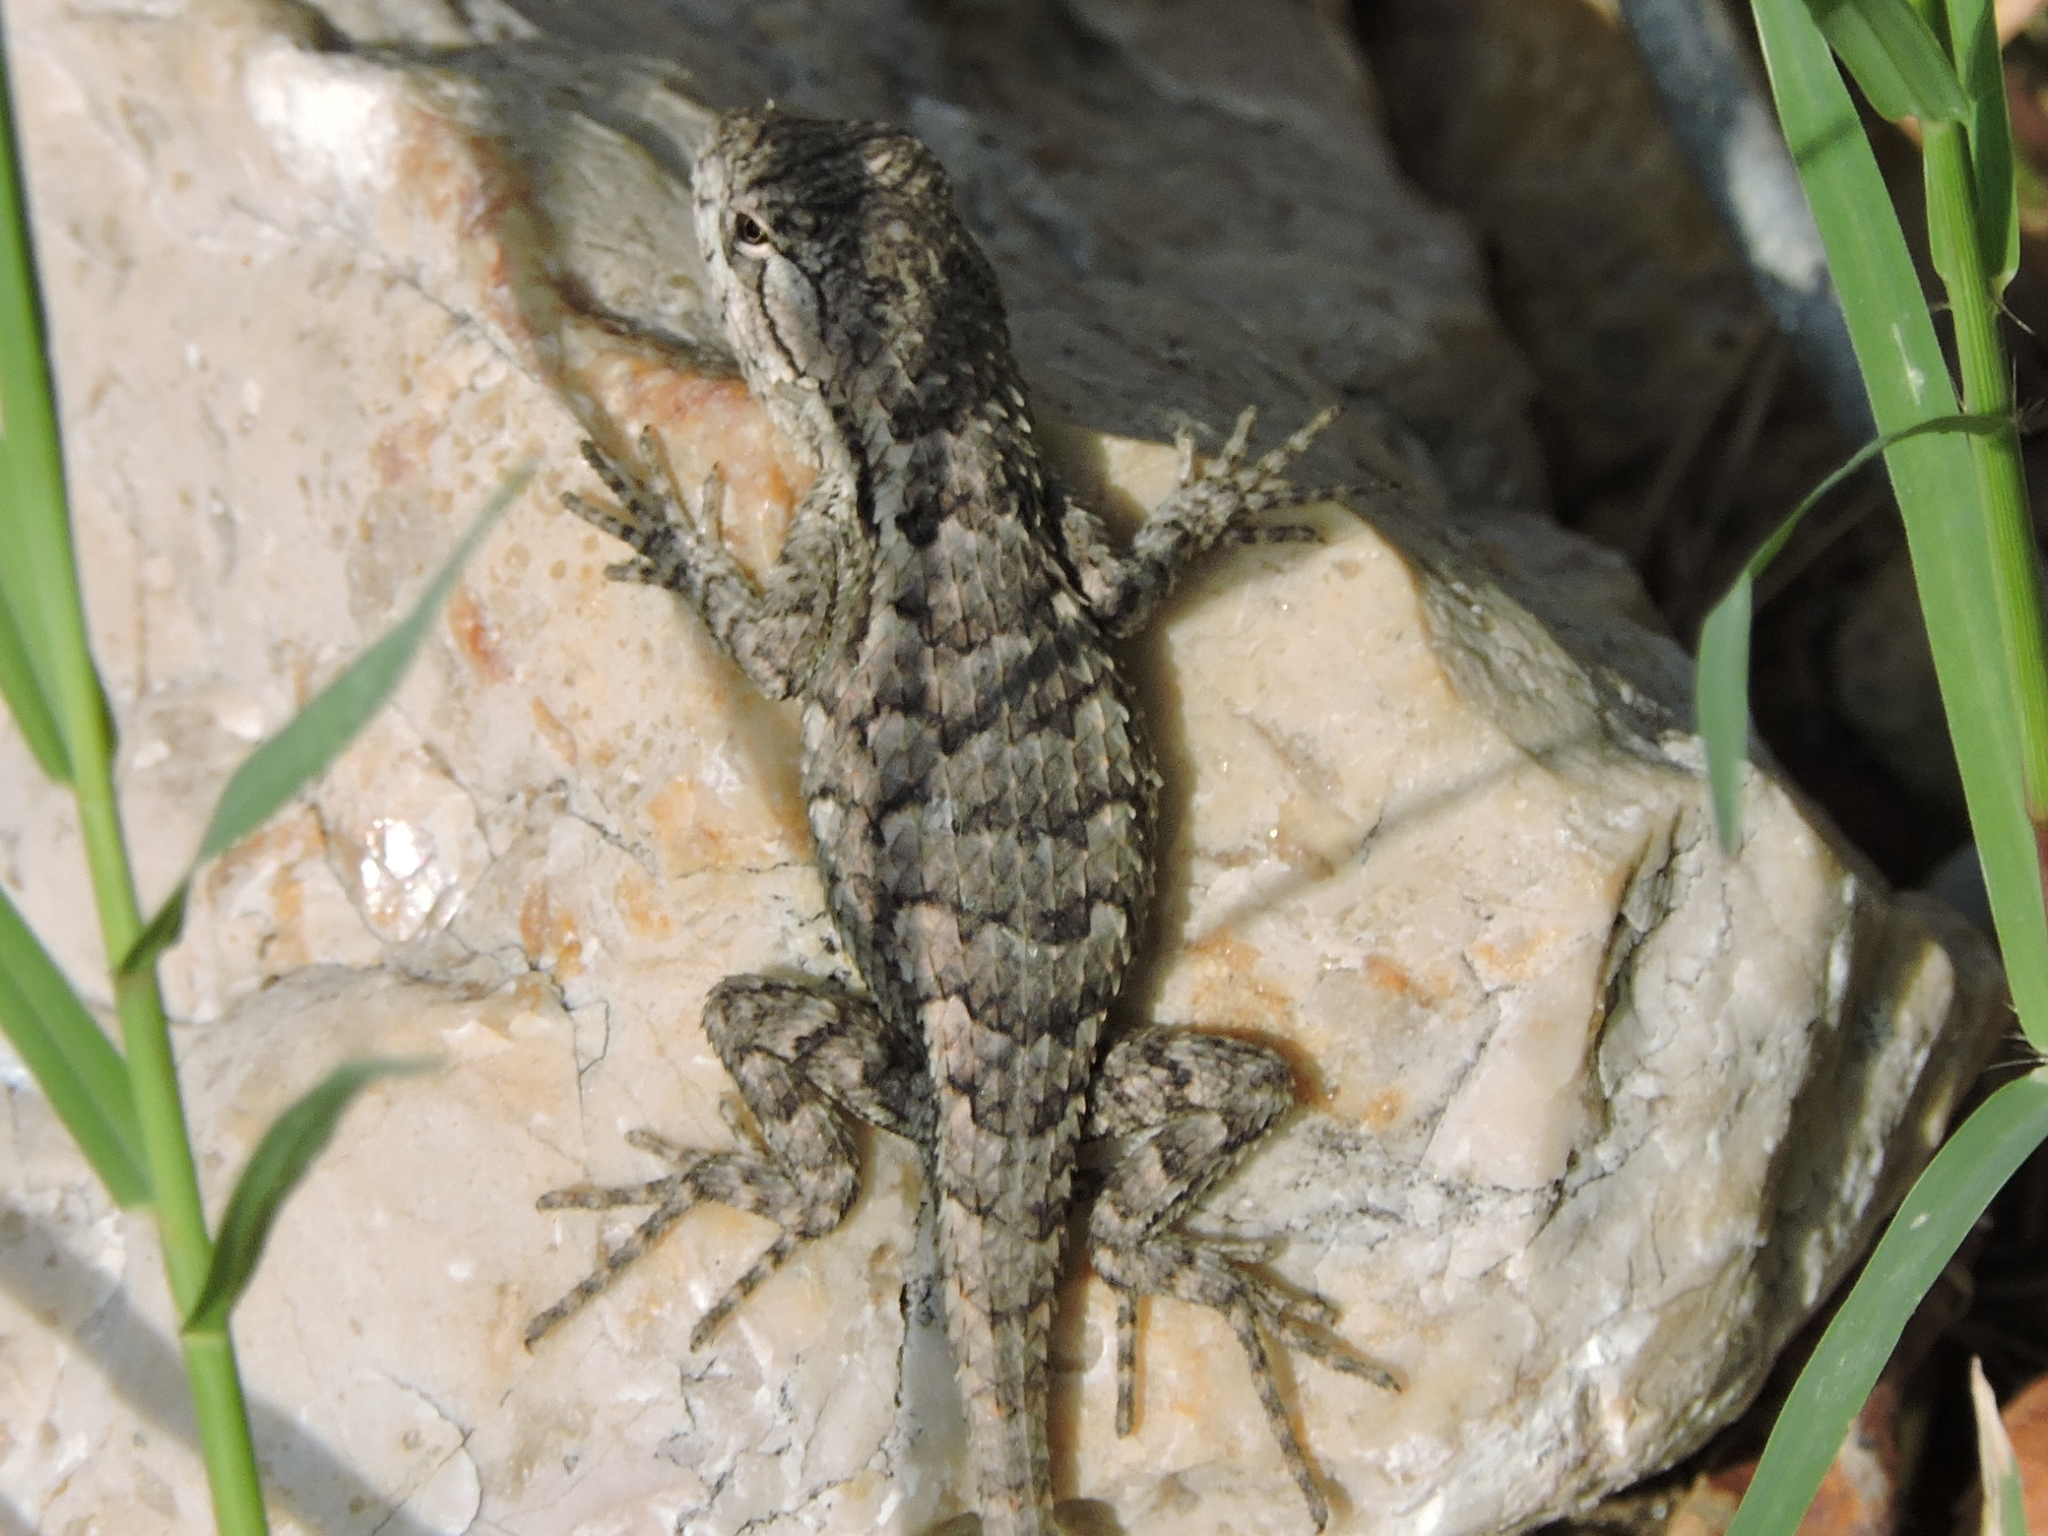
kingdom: Animalia
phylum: Chordata
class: Squamata
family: Phrynosomatidae
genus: Sceloporus
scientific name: Sceloporus olivaceus
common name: Texas spiny lizard
